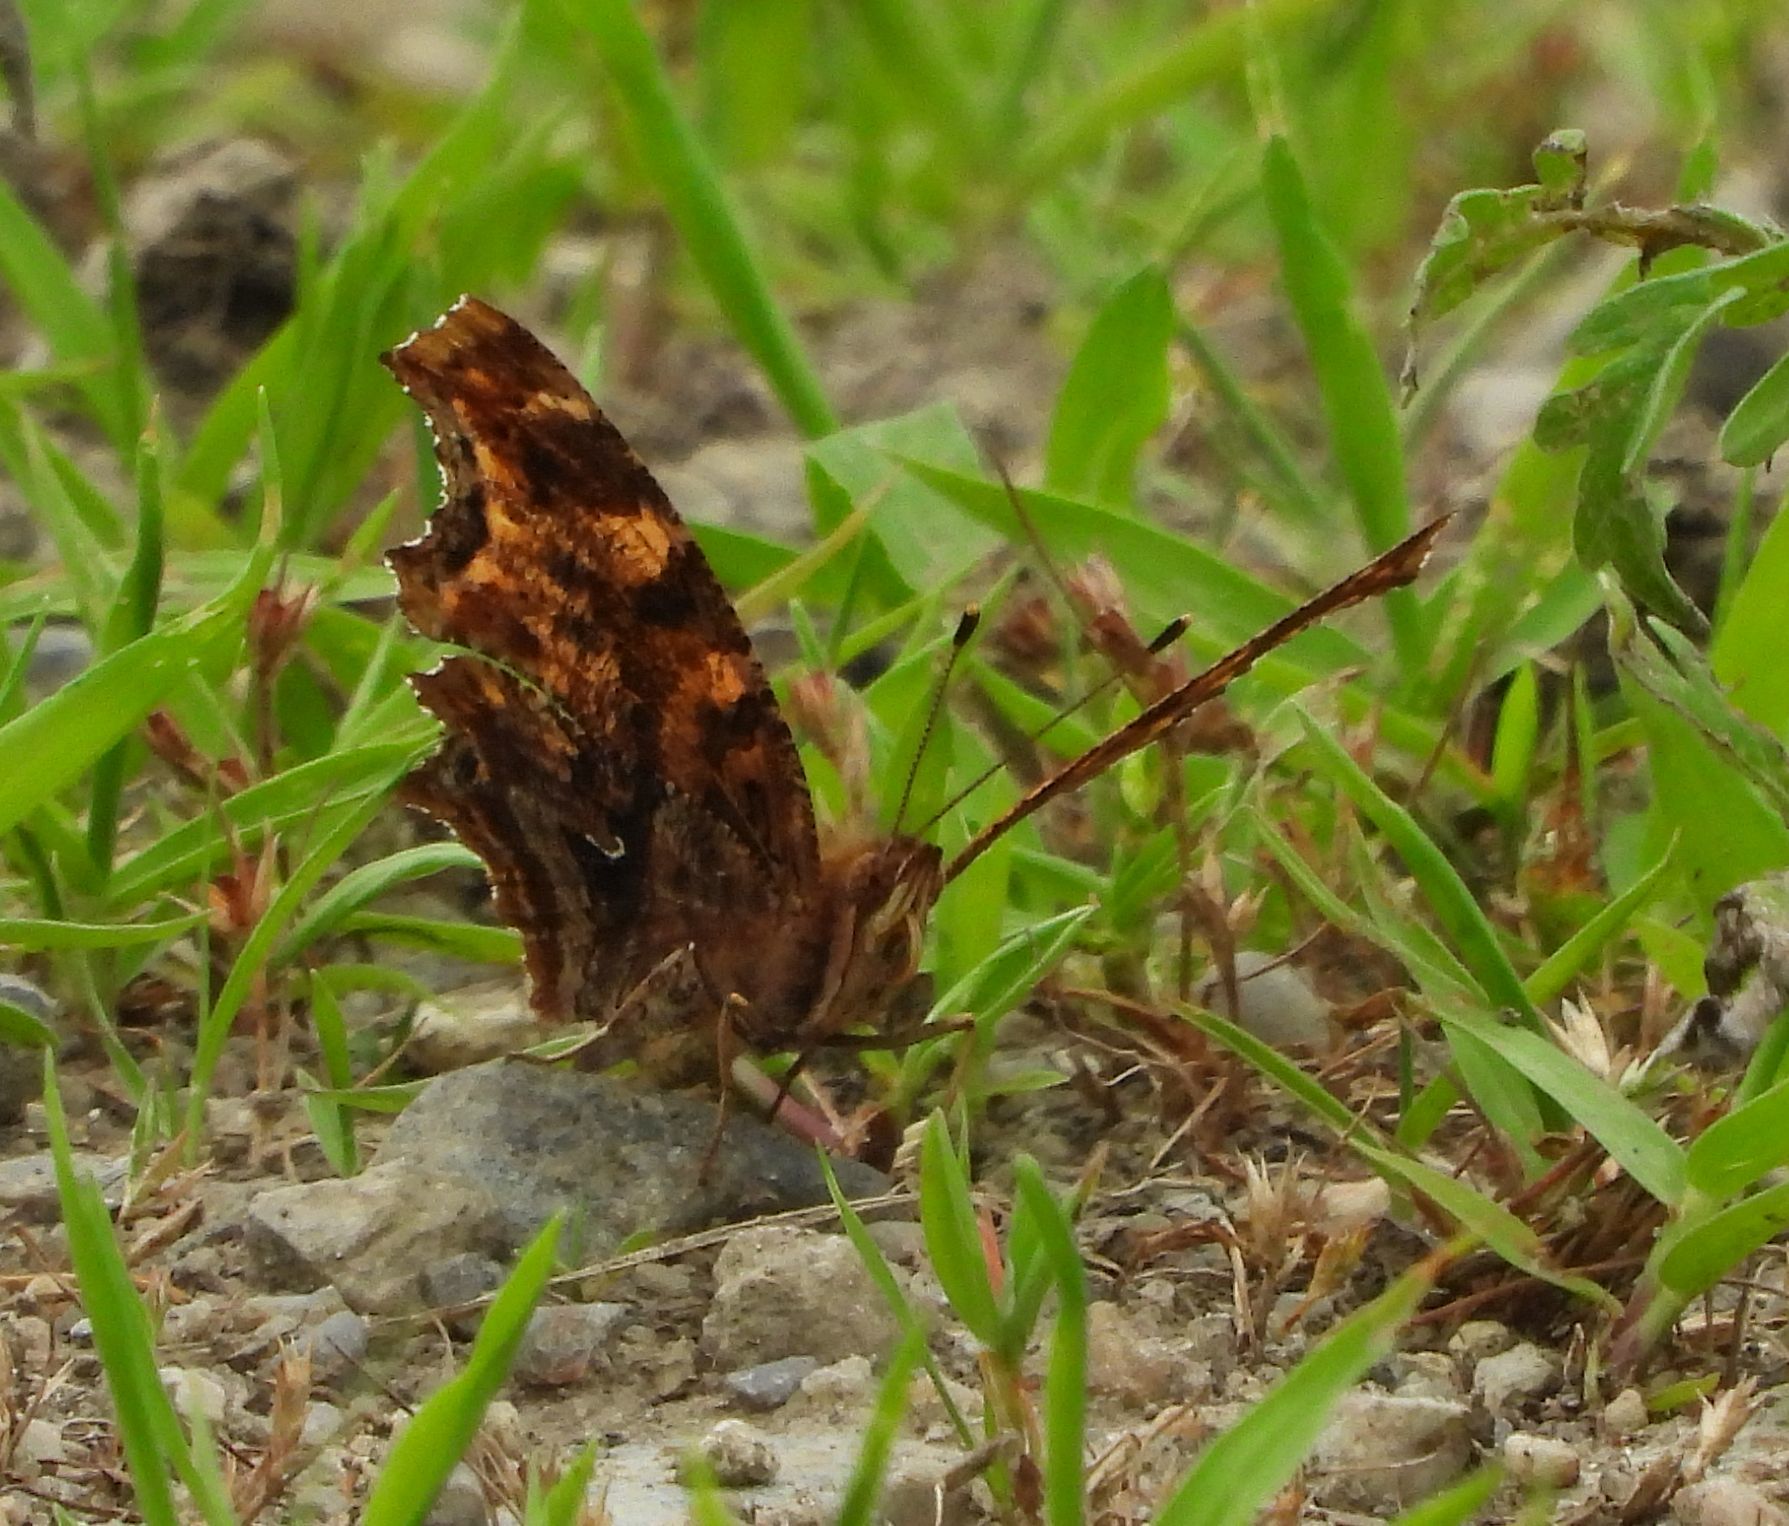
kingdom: Animalia
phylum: Arthropoda
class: Insecta
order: Lepidoptera
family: Nymphalidae
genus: Polygonia
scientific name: Polygonia comma
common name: Eastern comma
